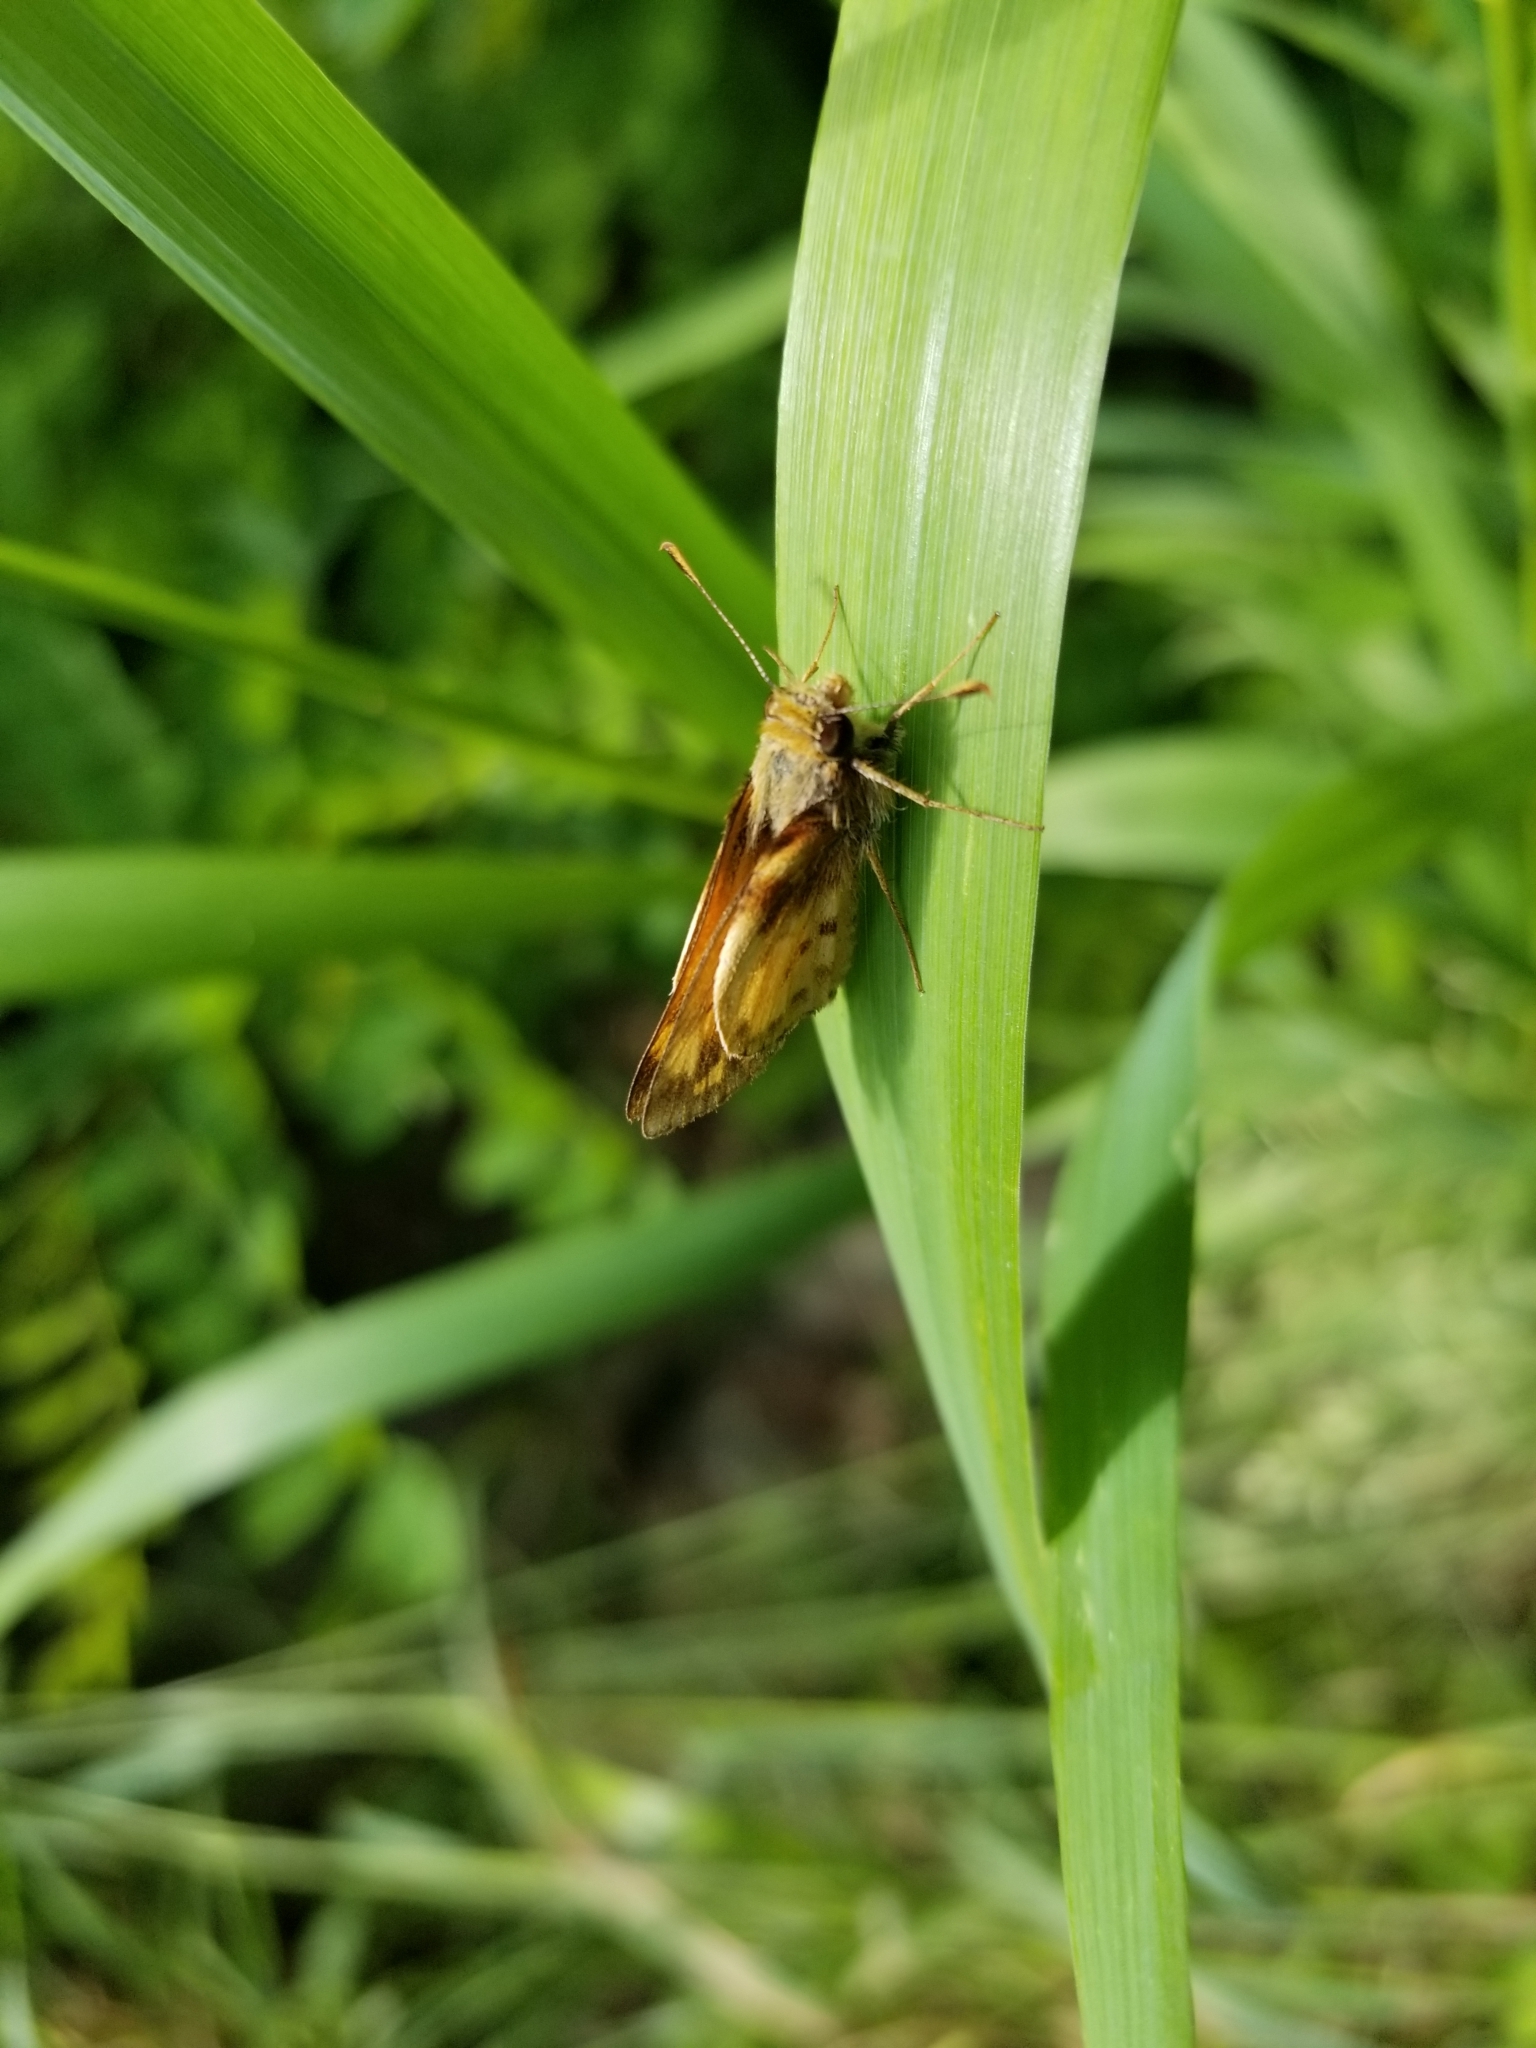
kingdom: Animalia
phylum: Arthropoda
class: Insecta
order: Lepidoptera
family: Hesperiidae
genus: Lon
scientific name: Lon zabulon
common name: Zabulon skipper
